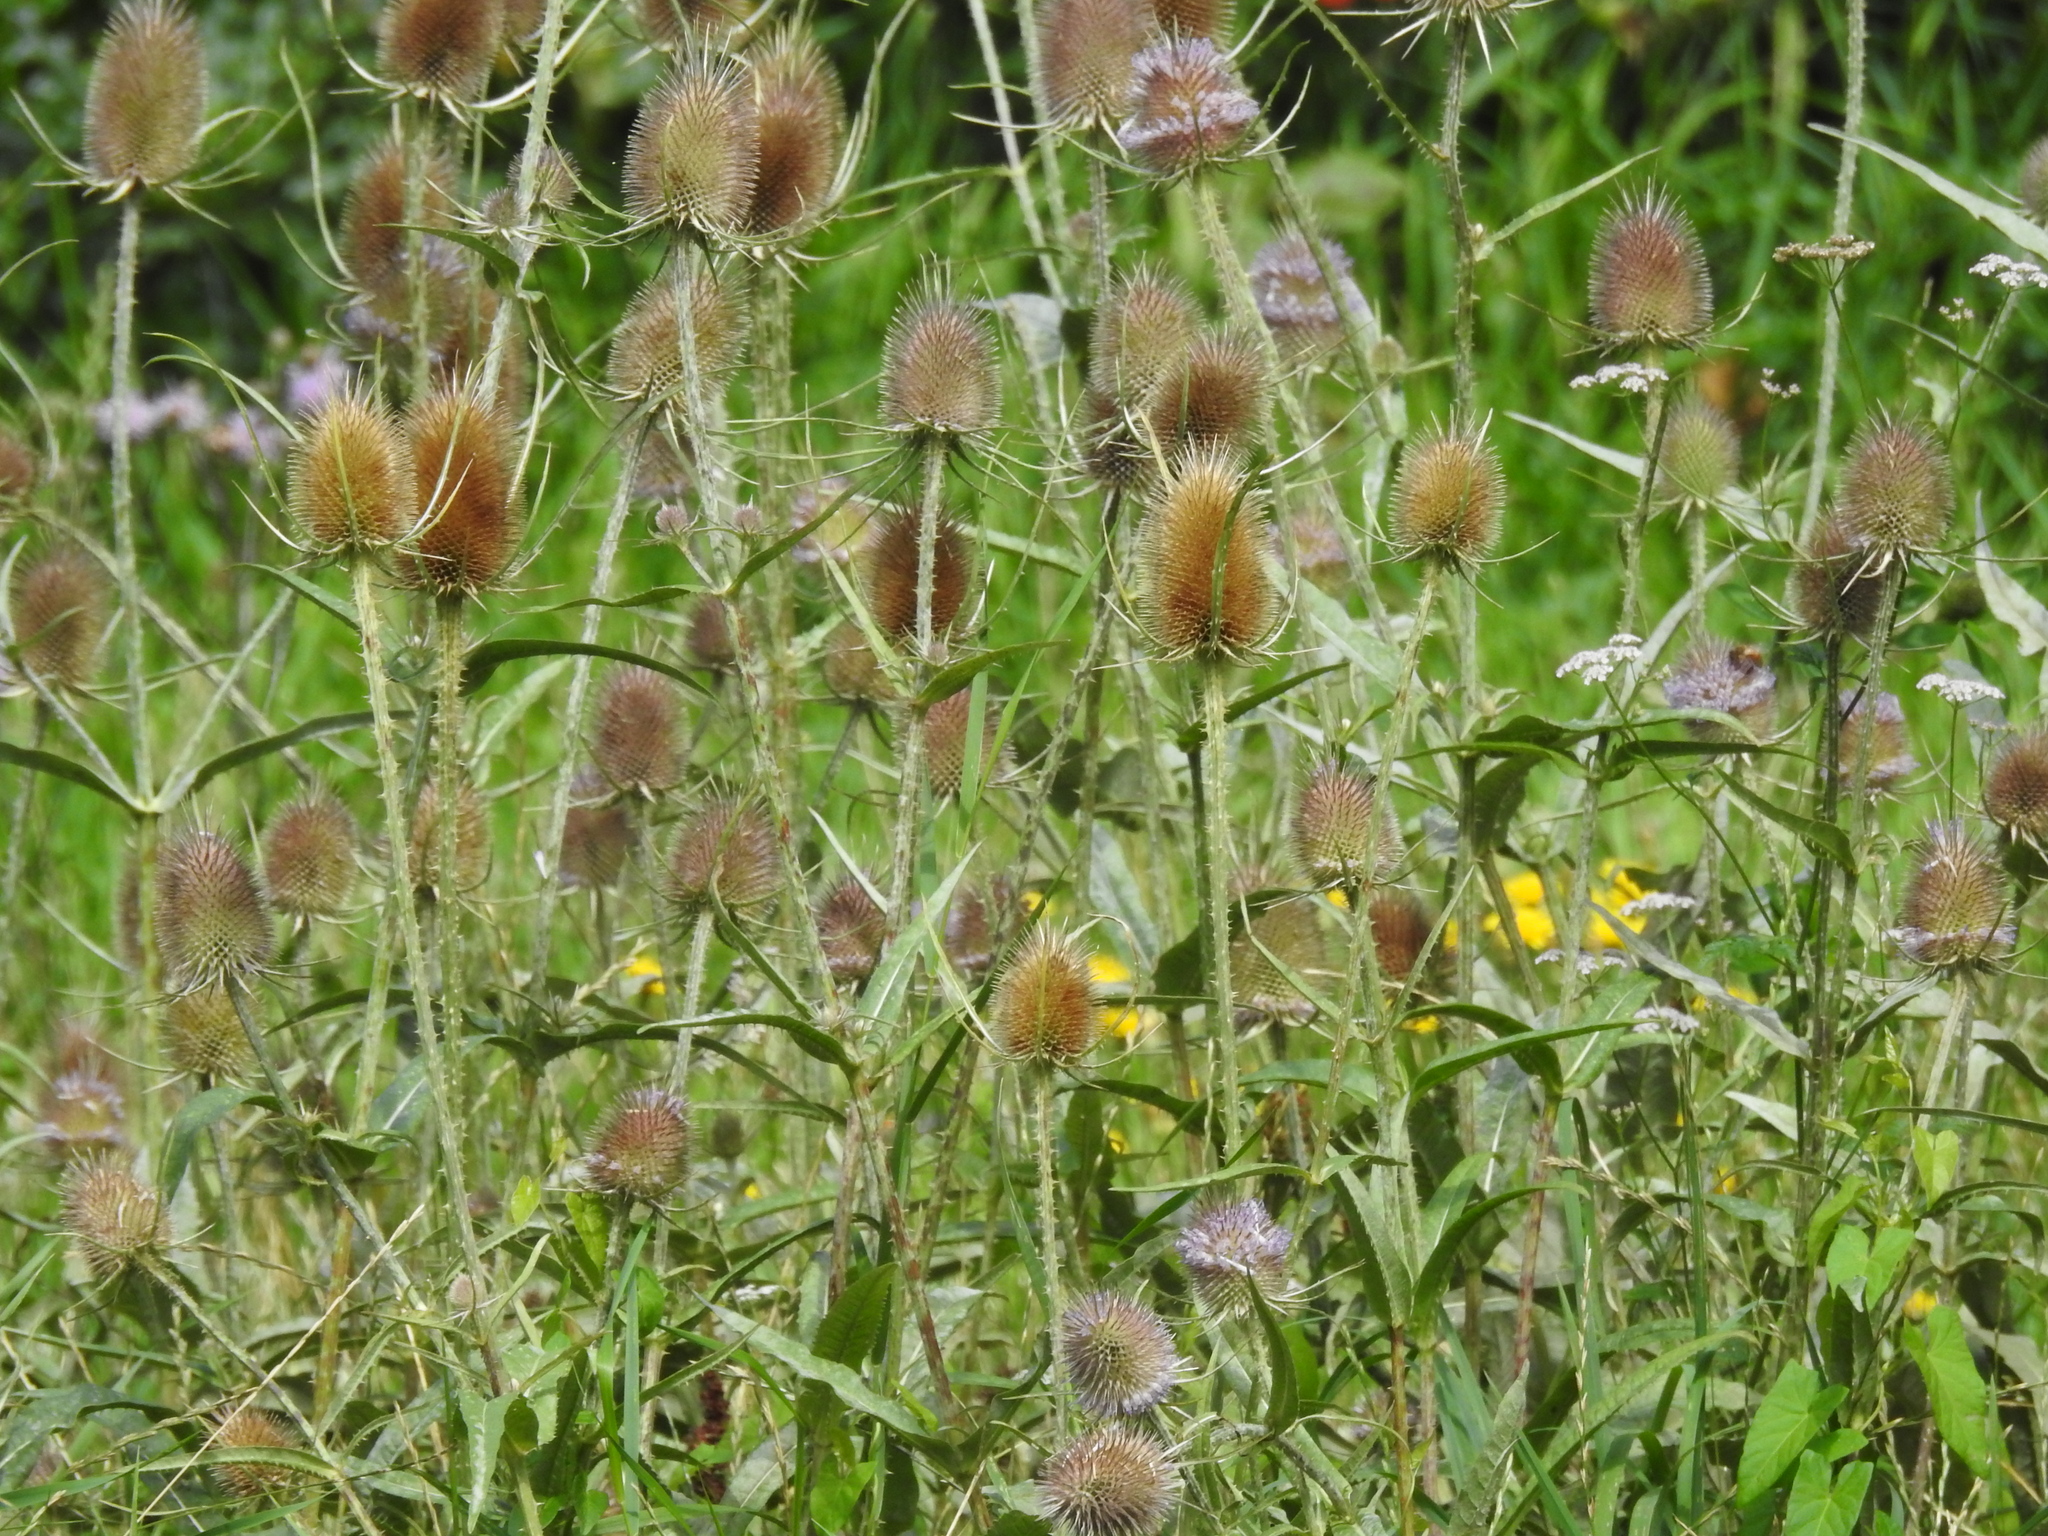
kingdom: Plantae
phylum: Tracheophyta
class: Magnoliopsida
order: Dipsacales
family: Caprifoliaceae
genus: Dipsacus
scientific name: Dipsacus fullonum
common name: Teasel
